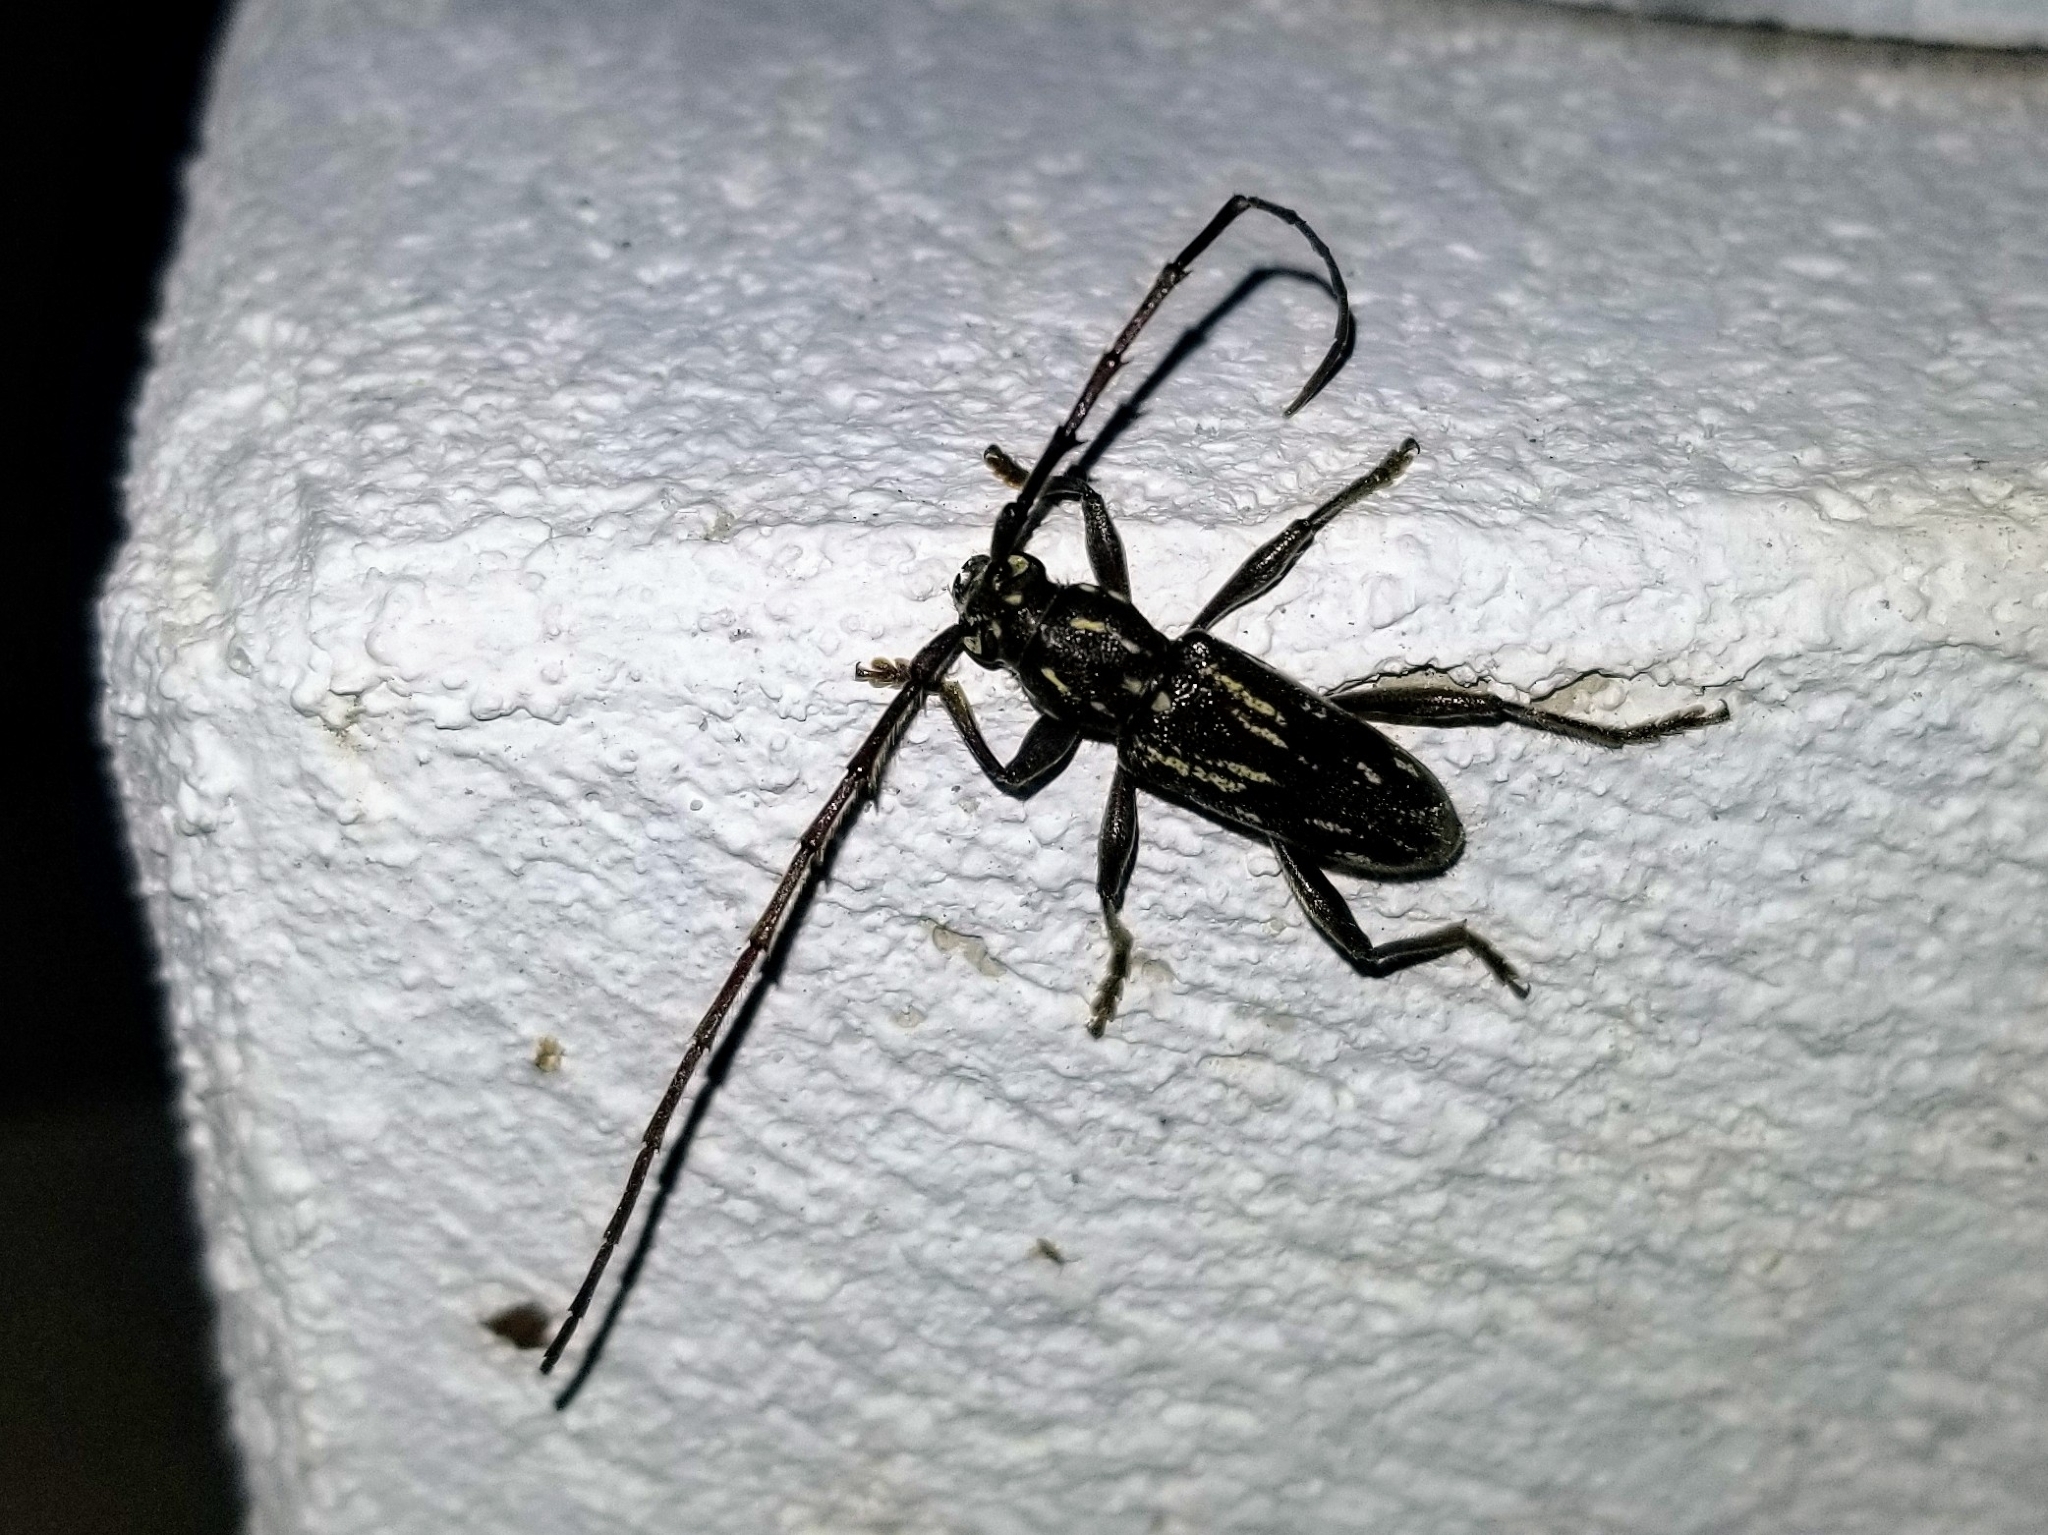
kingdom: Animalia
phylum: Arthropoda
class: Insecta
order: Coleoptera
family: Cerambycidae
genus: Trichophoroides
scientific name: Trichophoroides pilicornis
